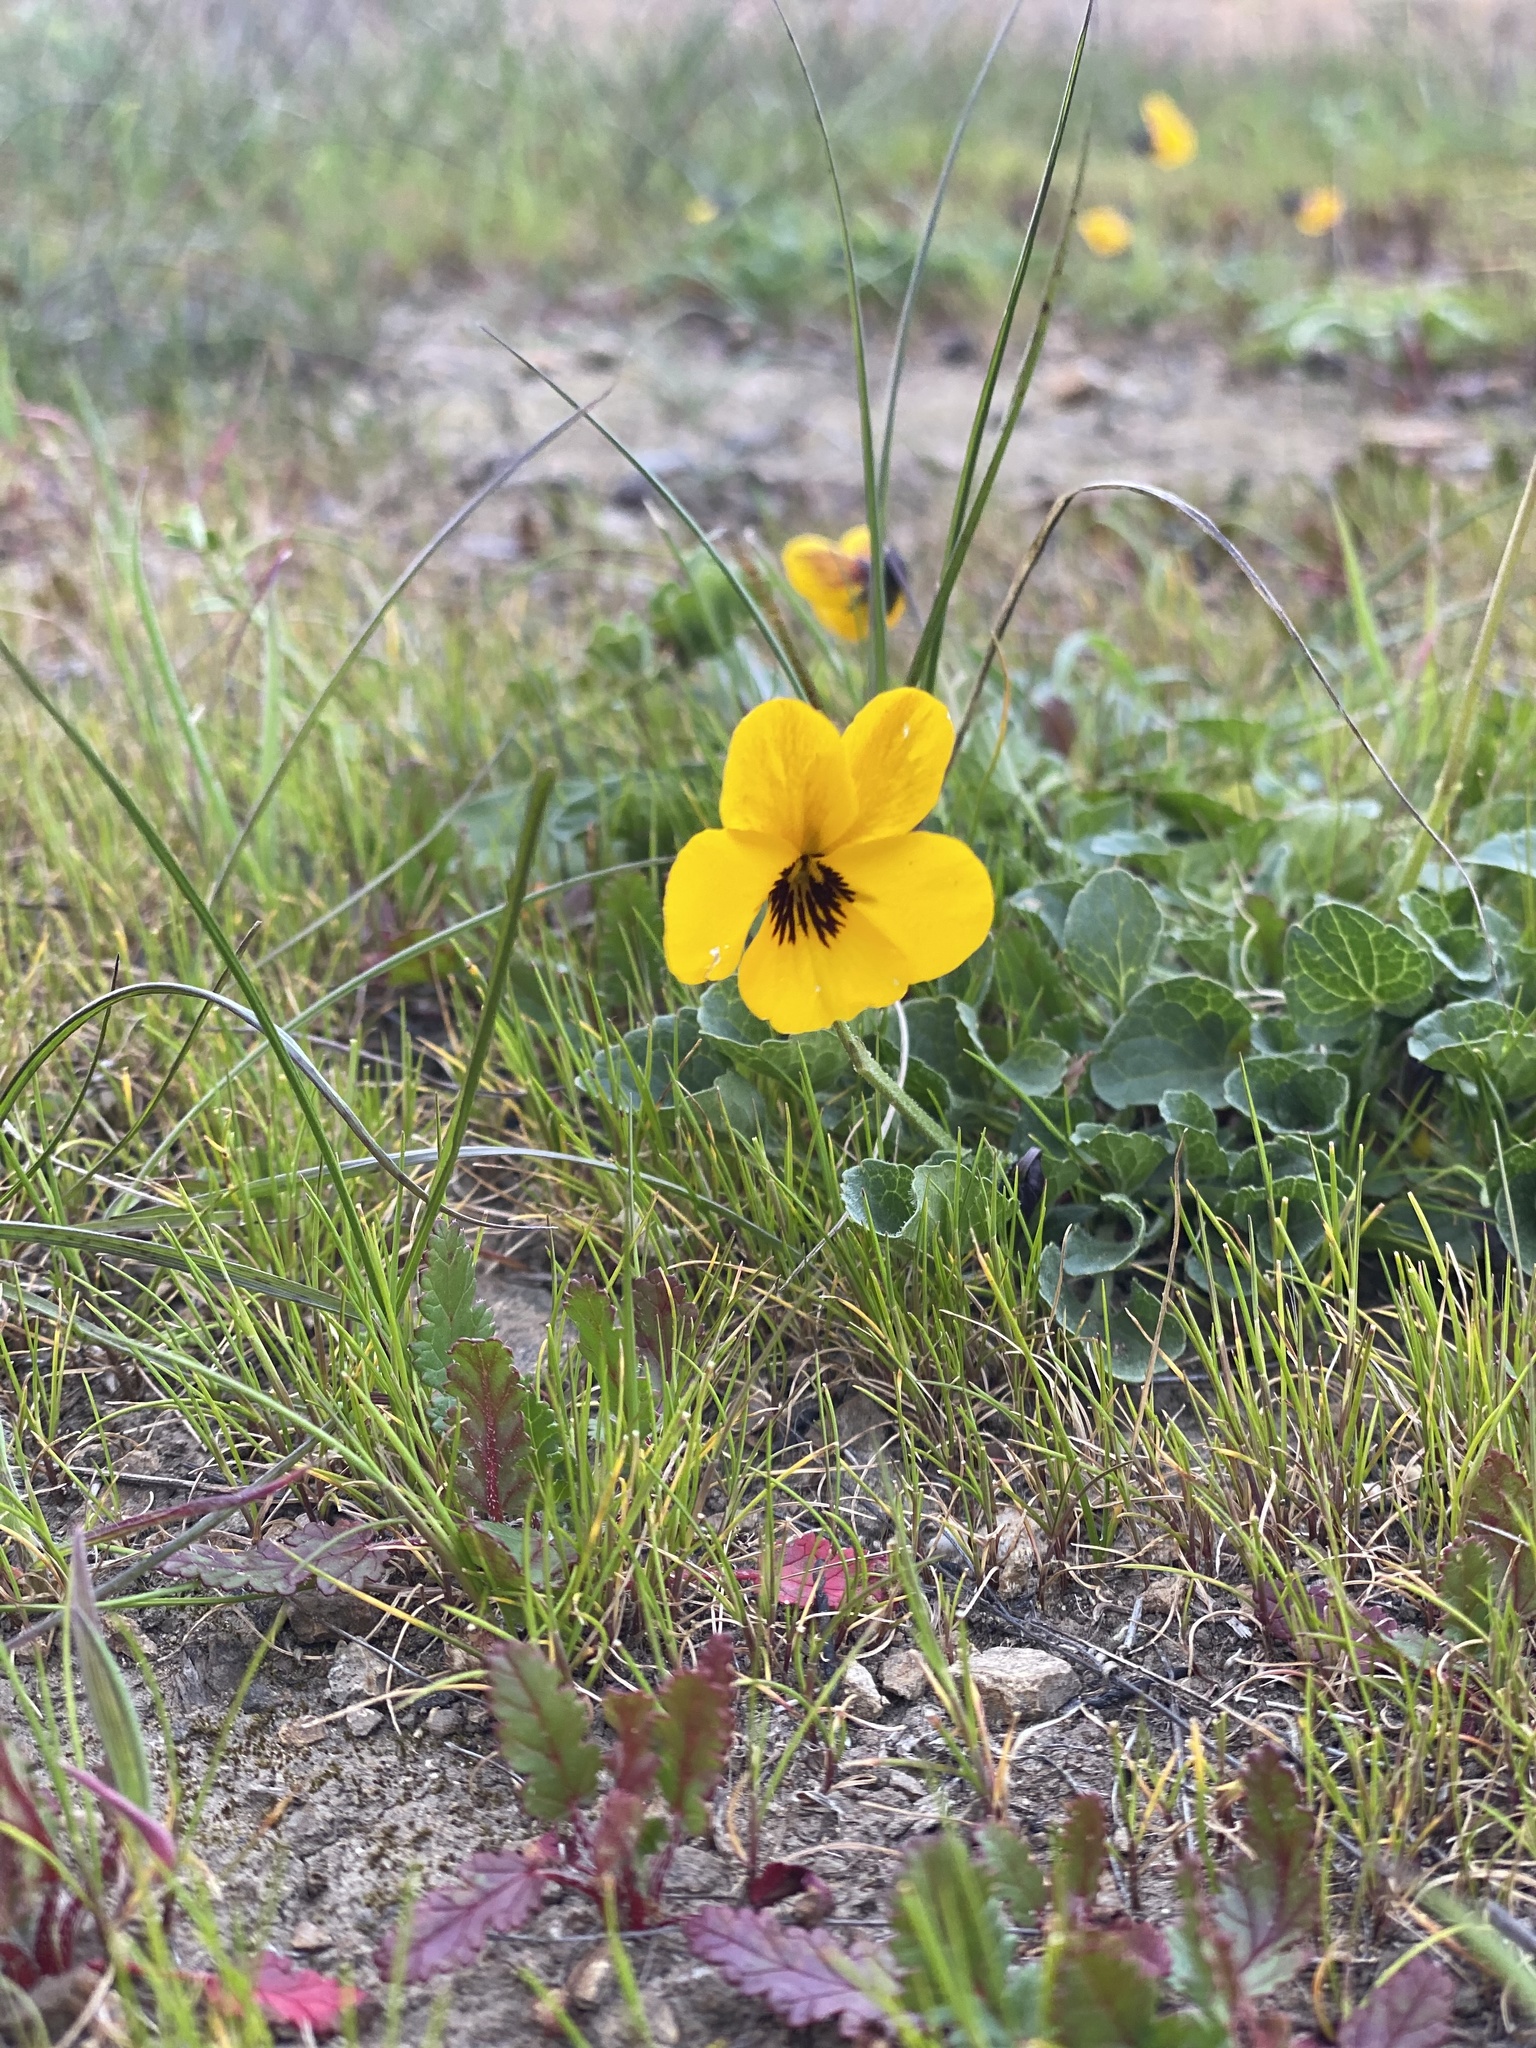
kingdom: Plantae
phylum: Tracheophyta
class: Magnoliopsida
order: Malpighiales
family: Violaceae
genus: Viola
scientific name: Viola pedunculata
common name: California golden violet
